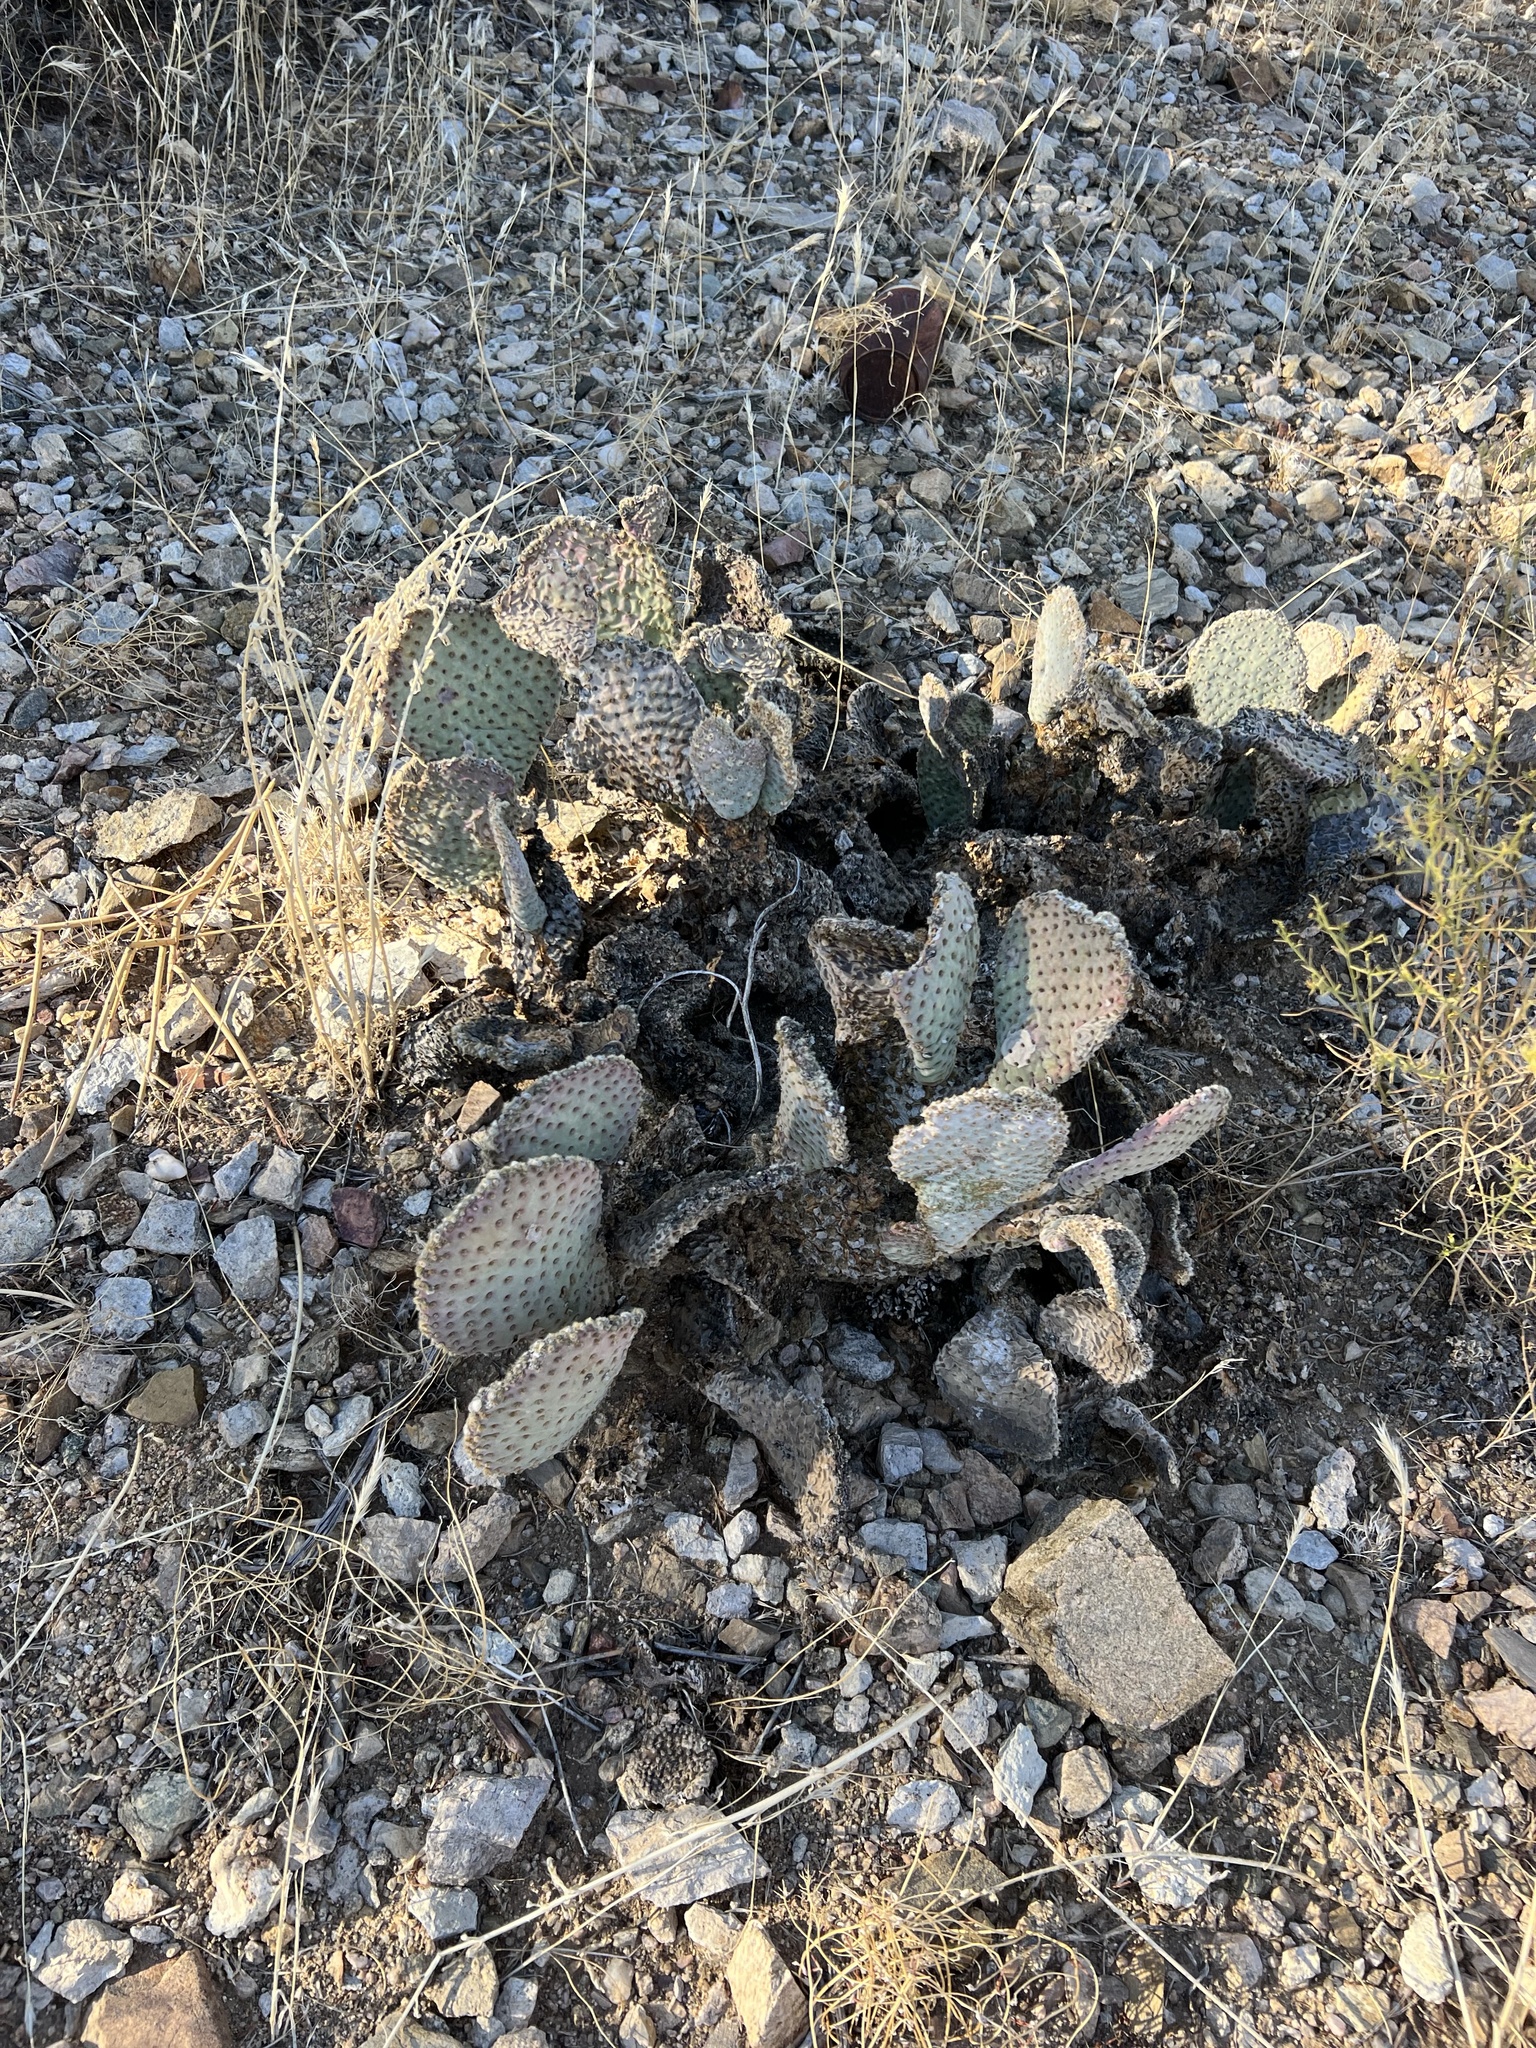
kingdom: Plantae
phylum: Tracheophyta
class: Magnoliopsida
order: Caryophyllales
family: Cactaceae
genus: Opuntia
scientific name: Opuntia basilaris
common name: Beavertail prickly-pear
